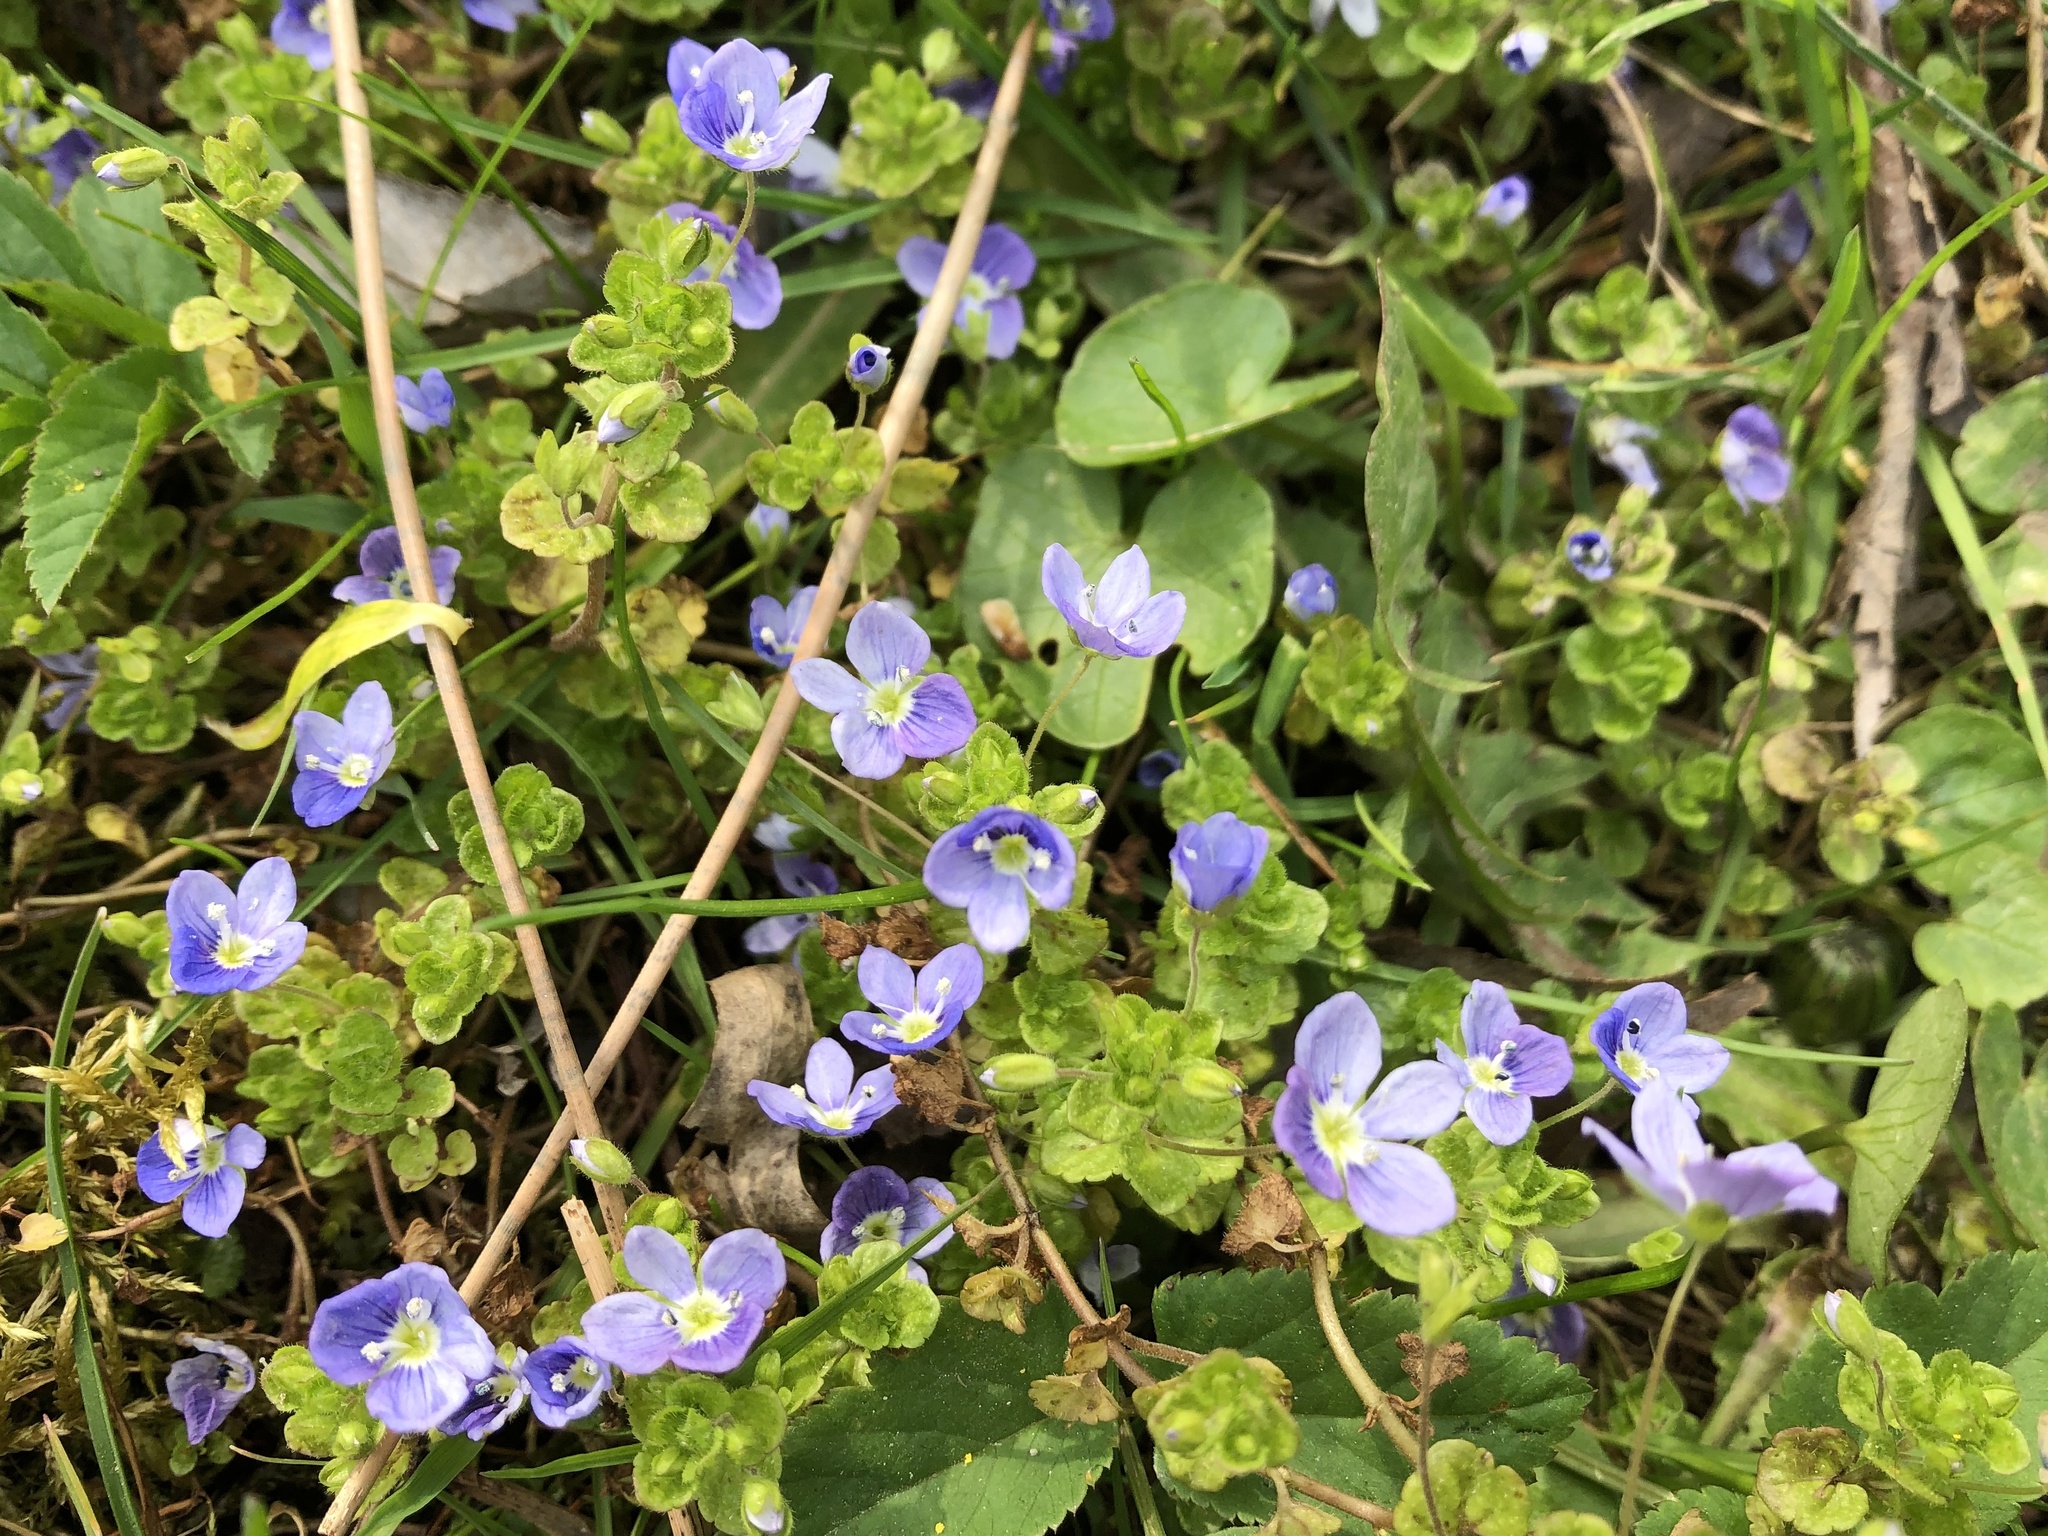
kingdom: Plantae
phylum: Tracheophyta
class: Magnoliopsida
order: Lamiales
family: Plantaginaceae
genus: Veronica
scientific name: Veronica filiformis
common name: Slender speedwell
